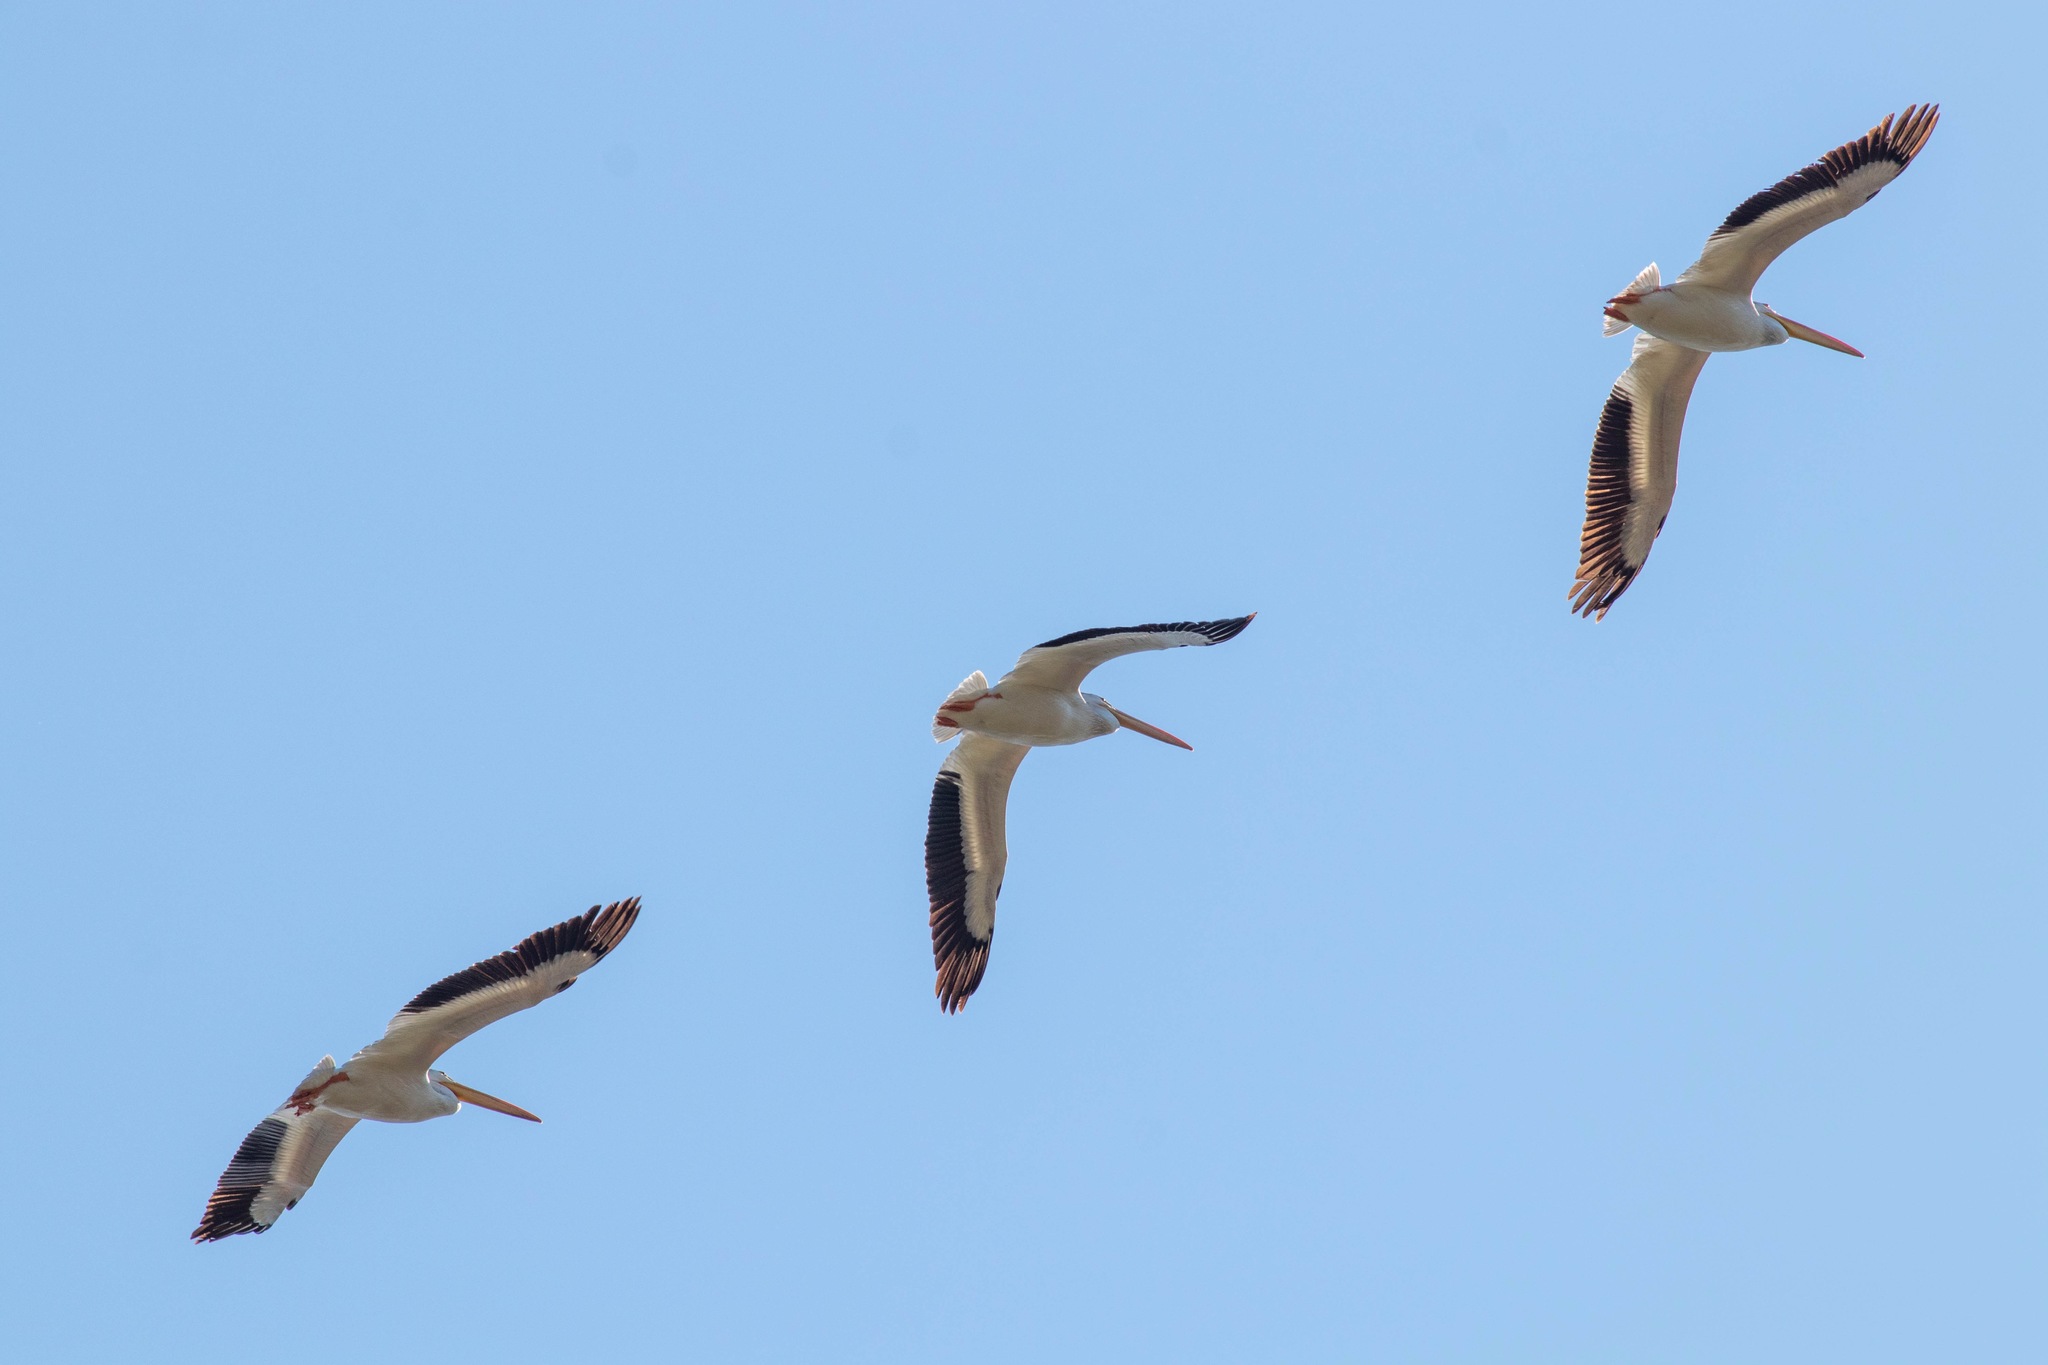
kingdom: Animalia
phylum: Chordata
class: Aves
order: Pelecaniformes
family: Pelecanidae
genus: Pelecanus
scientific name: Pelecanus erythrorhynchos
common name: American white pelican
